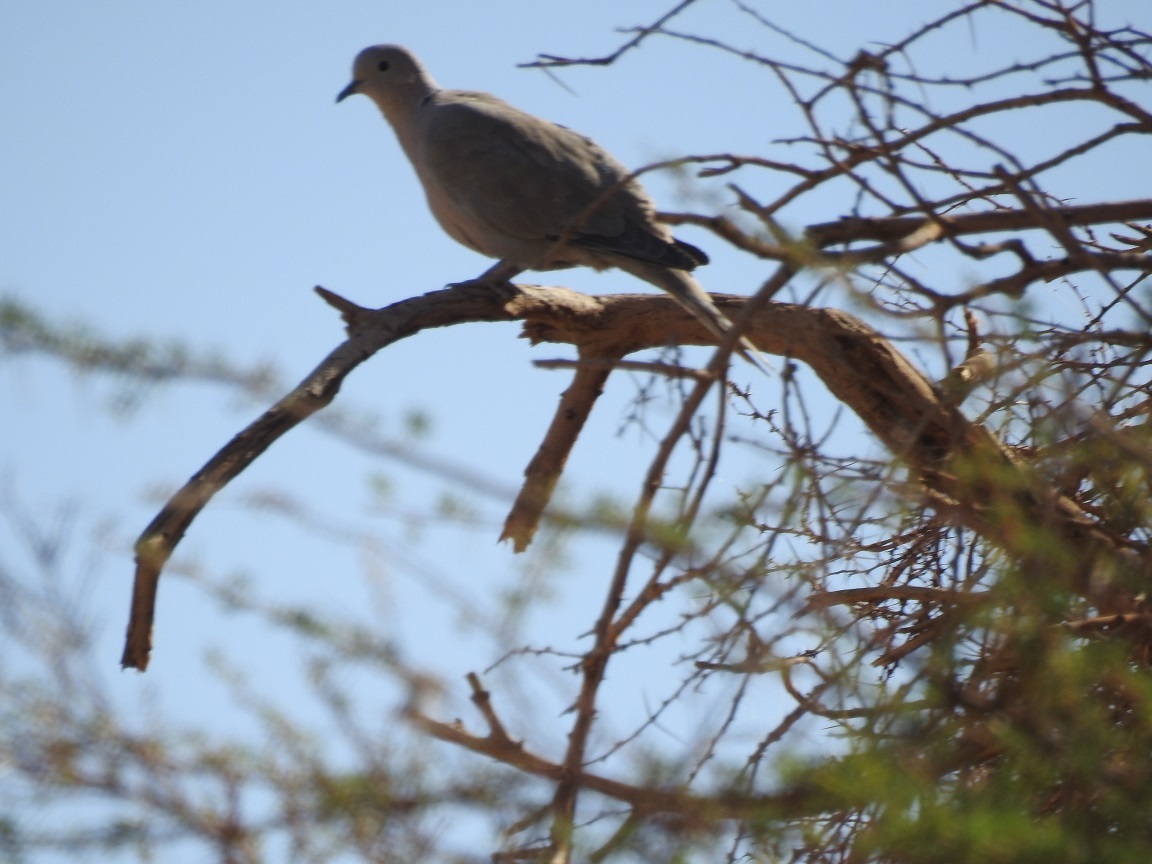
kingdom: Animalia
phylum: Chordata
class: Aves
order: Columbiformes
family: Columbidae
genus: Streptopelia
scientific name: Streptopelia decaocto
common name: Eurasian collared dove
